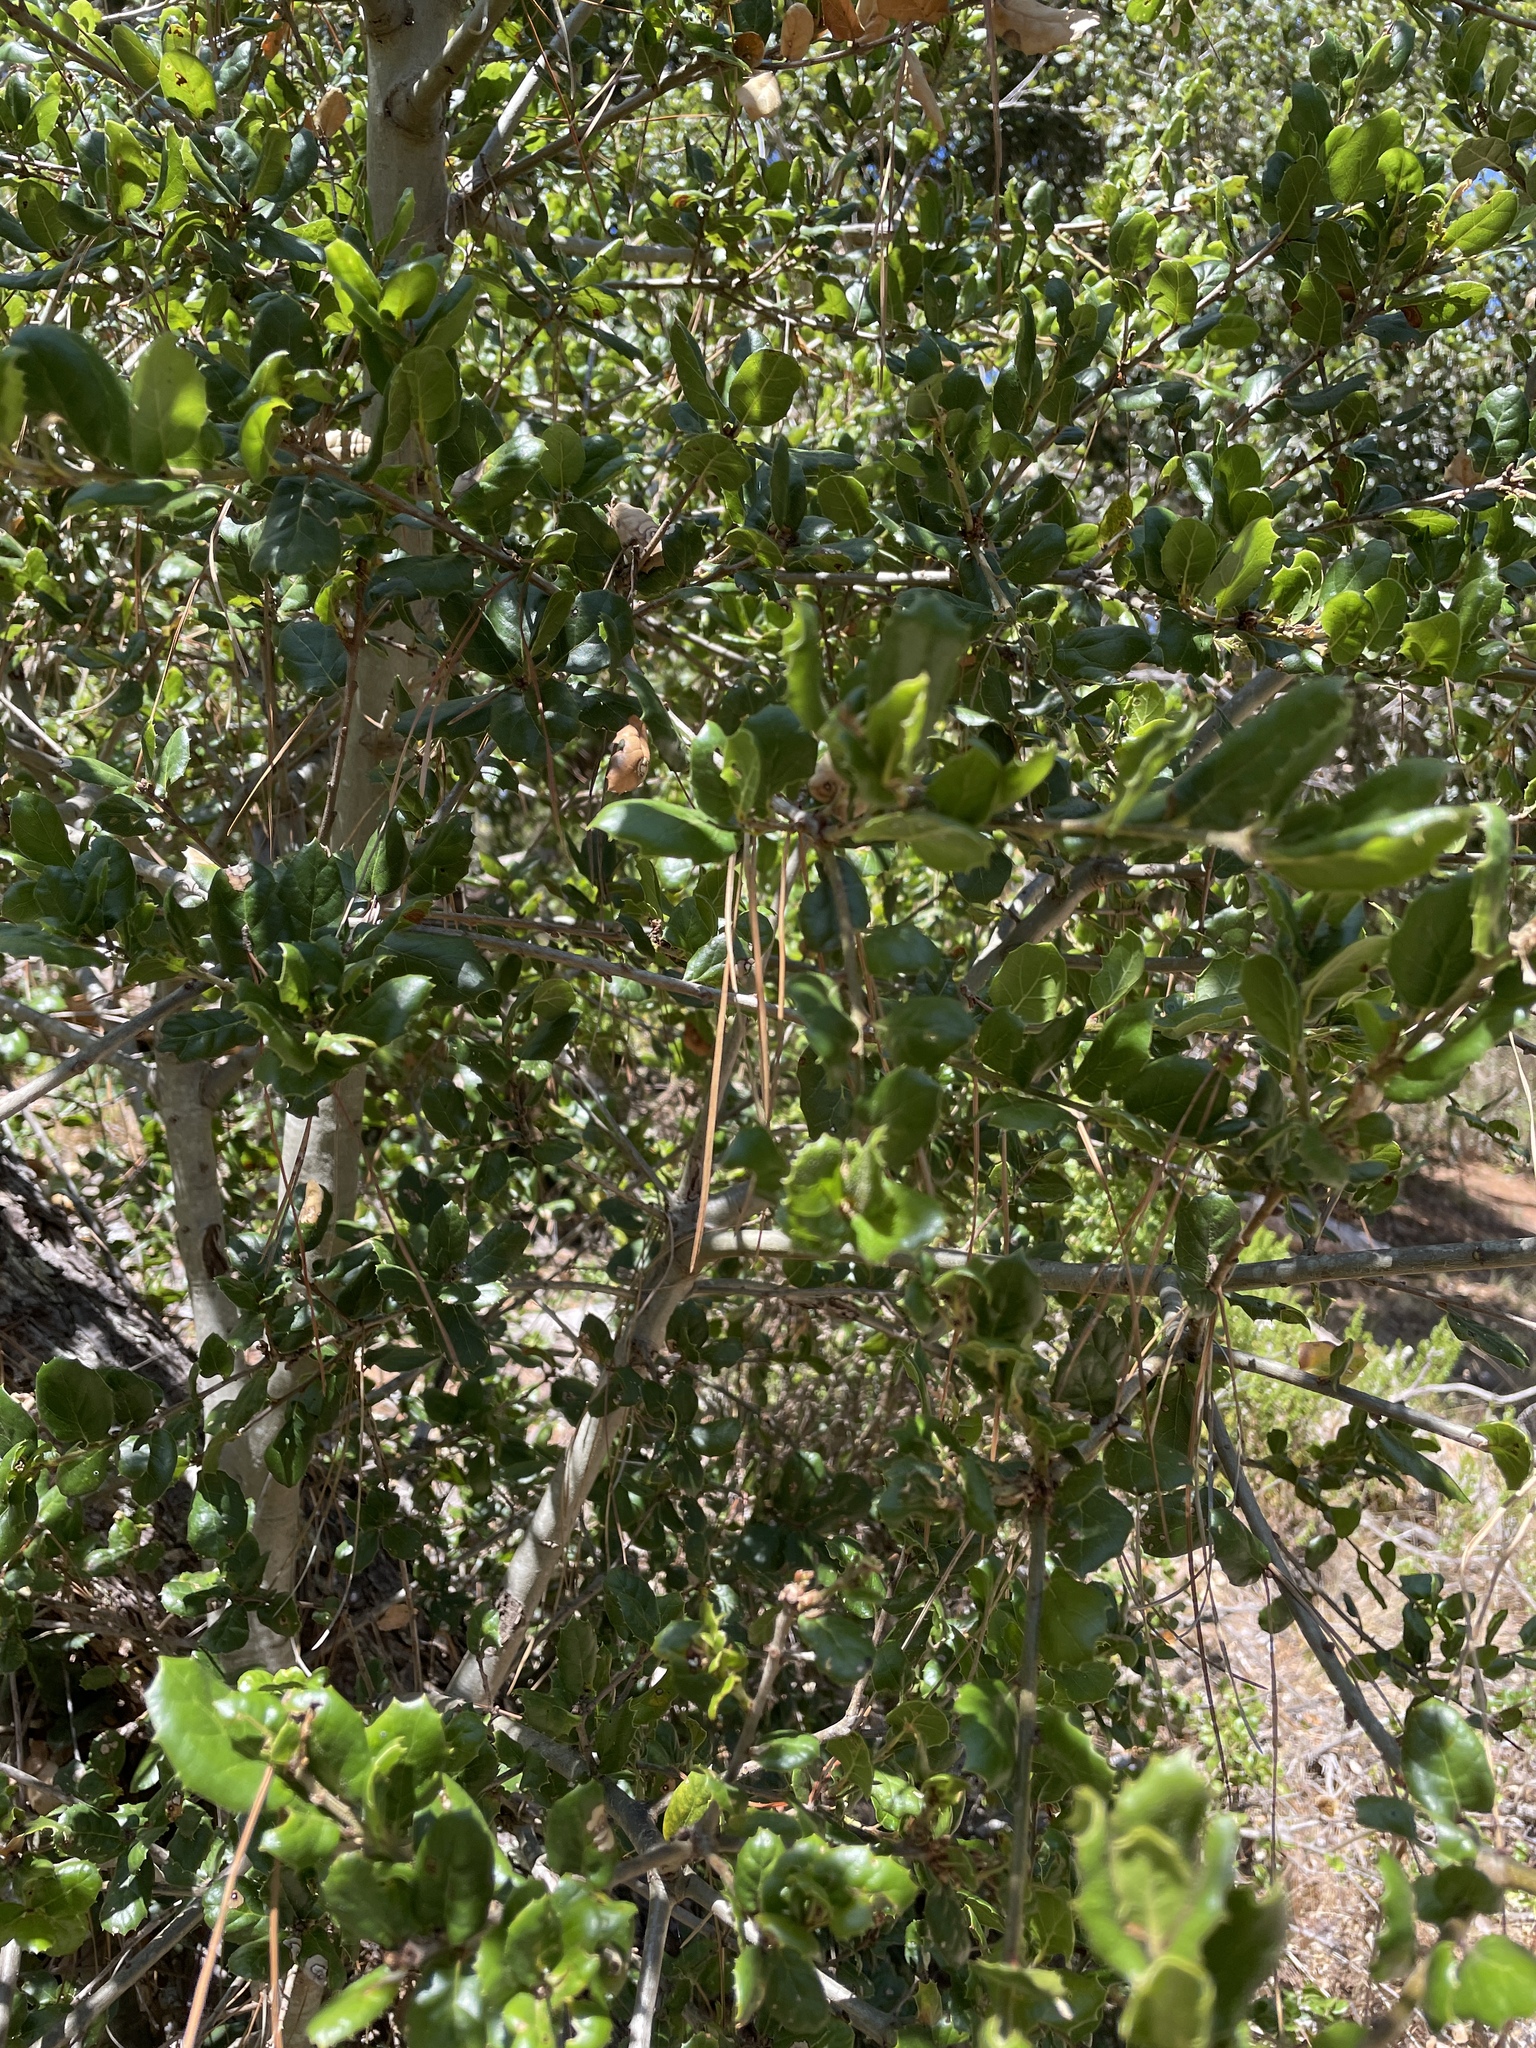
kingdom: Plantae
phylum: Tracheophyta
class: Magnoliopsida
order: Fagales
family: Fagaceae
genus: Quercus
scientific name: Quercus agrifolia
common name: California live oak
